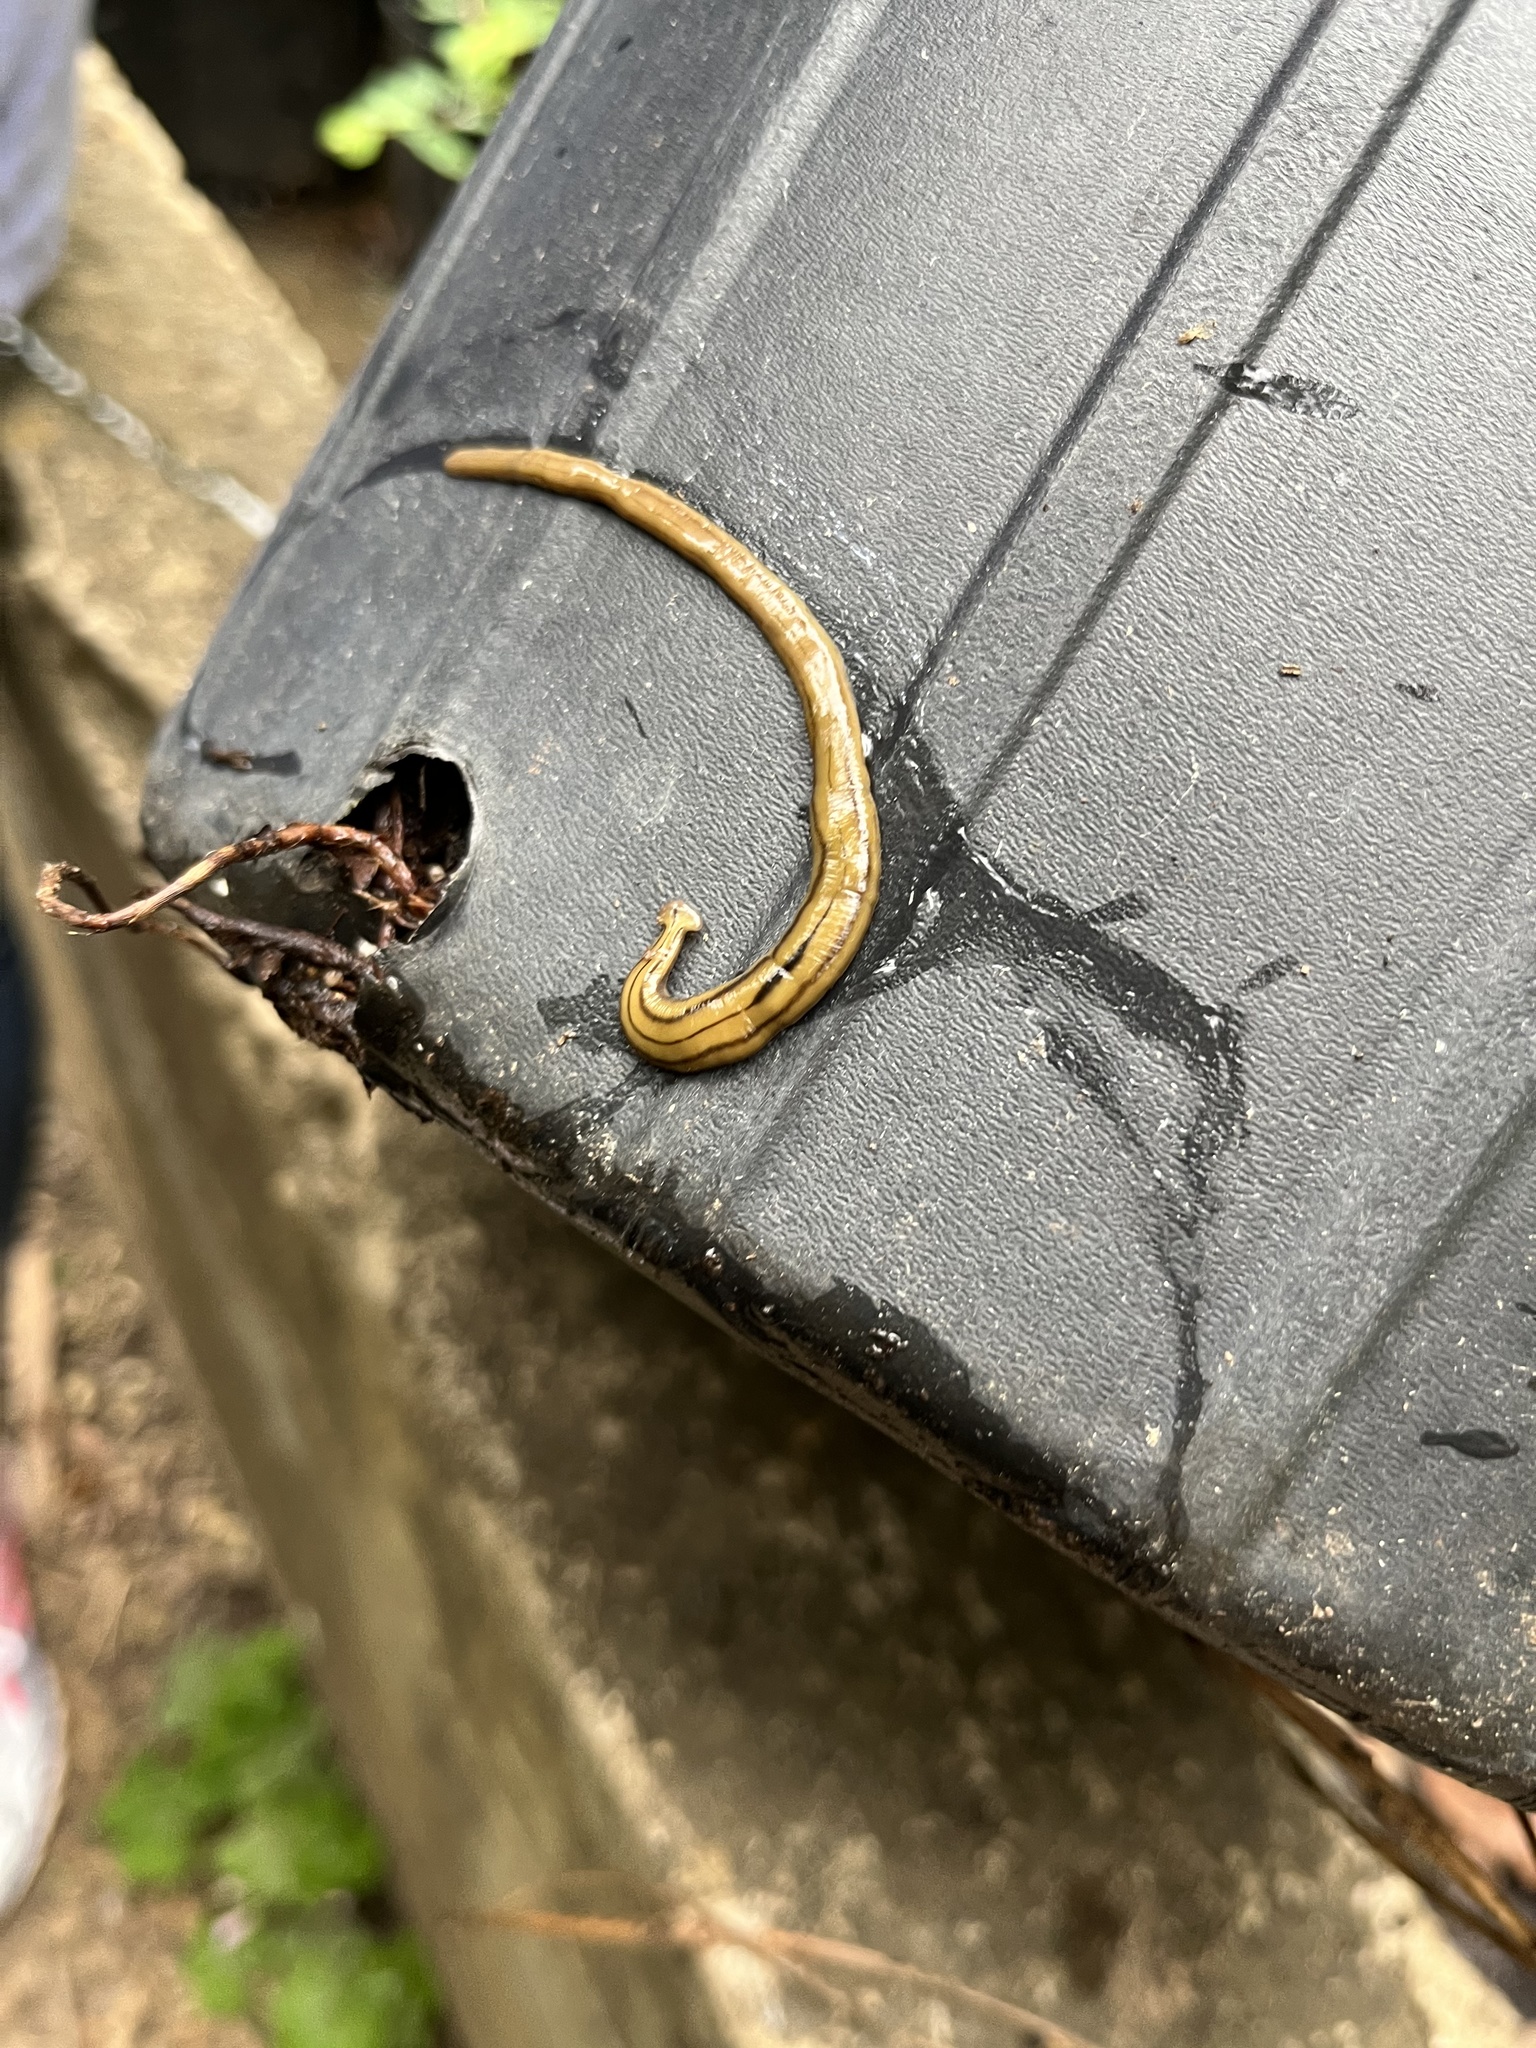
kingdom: Animalia
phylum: Platyhelminthes
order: Tricladida
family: Geoplanidae
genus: Diversibipalium
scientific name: Diversibipalium multilineatum
